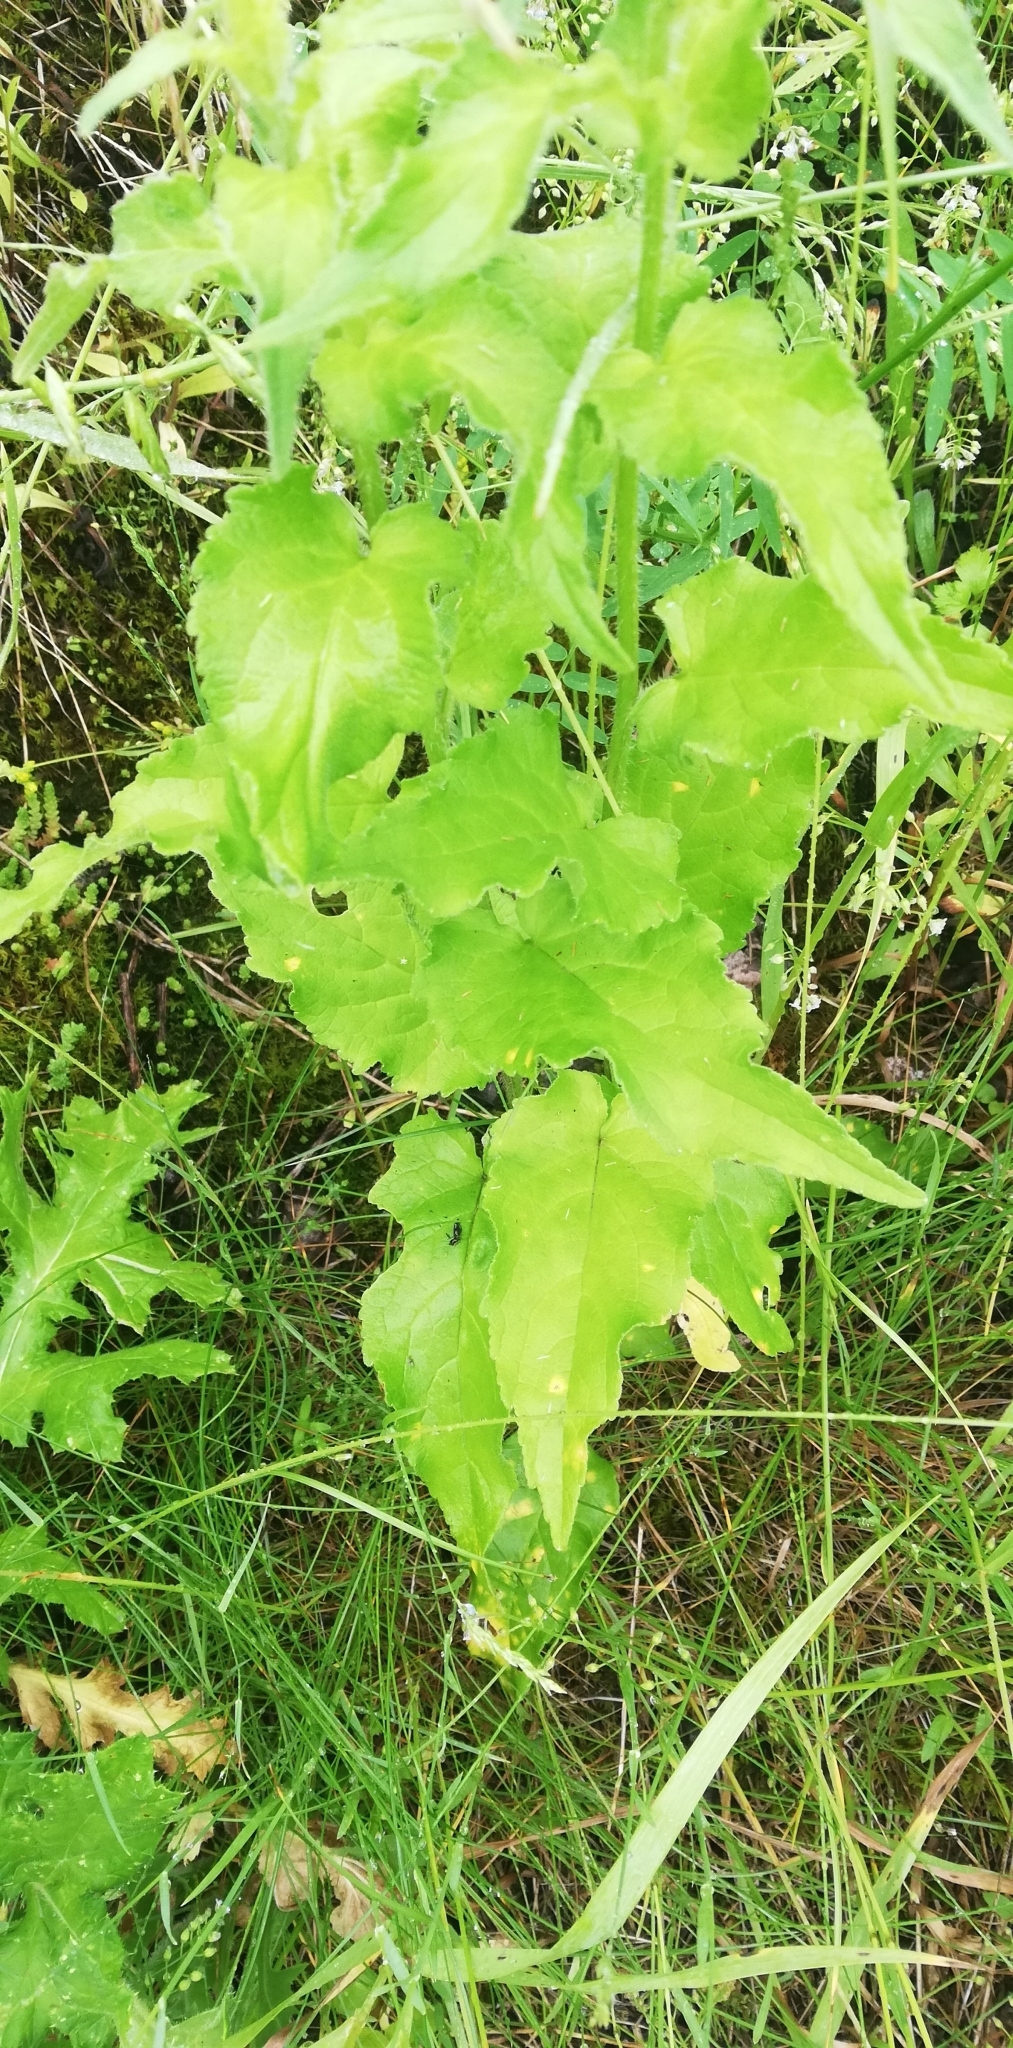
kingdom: Plantae
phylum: Tracheophyta
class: Magnoliopsida
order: Asterales
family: Campanulaceae
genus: Campanula
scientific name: Campanula rapunculoides
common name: Creeping bellflower
